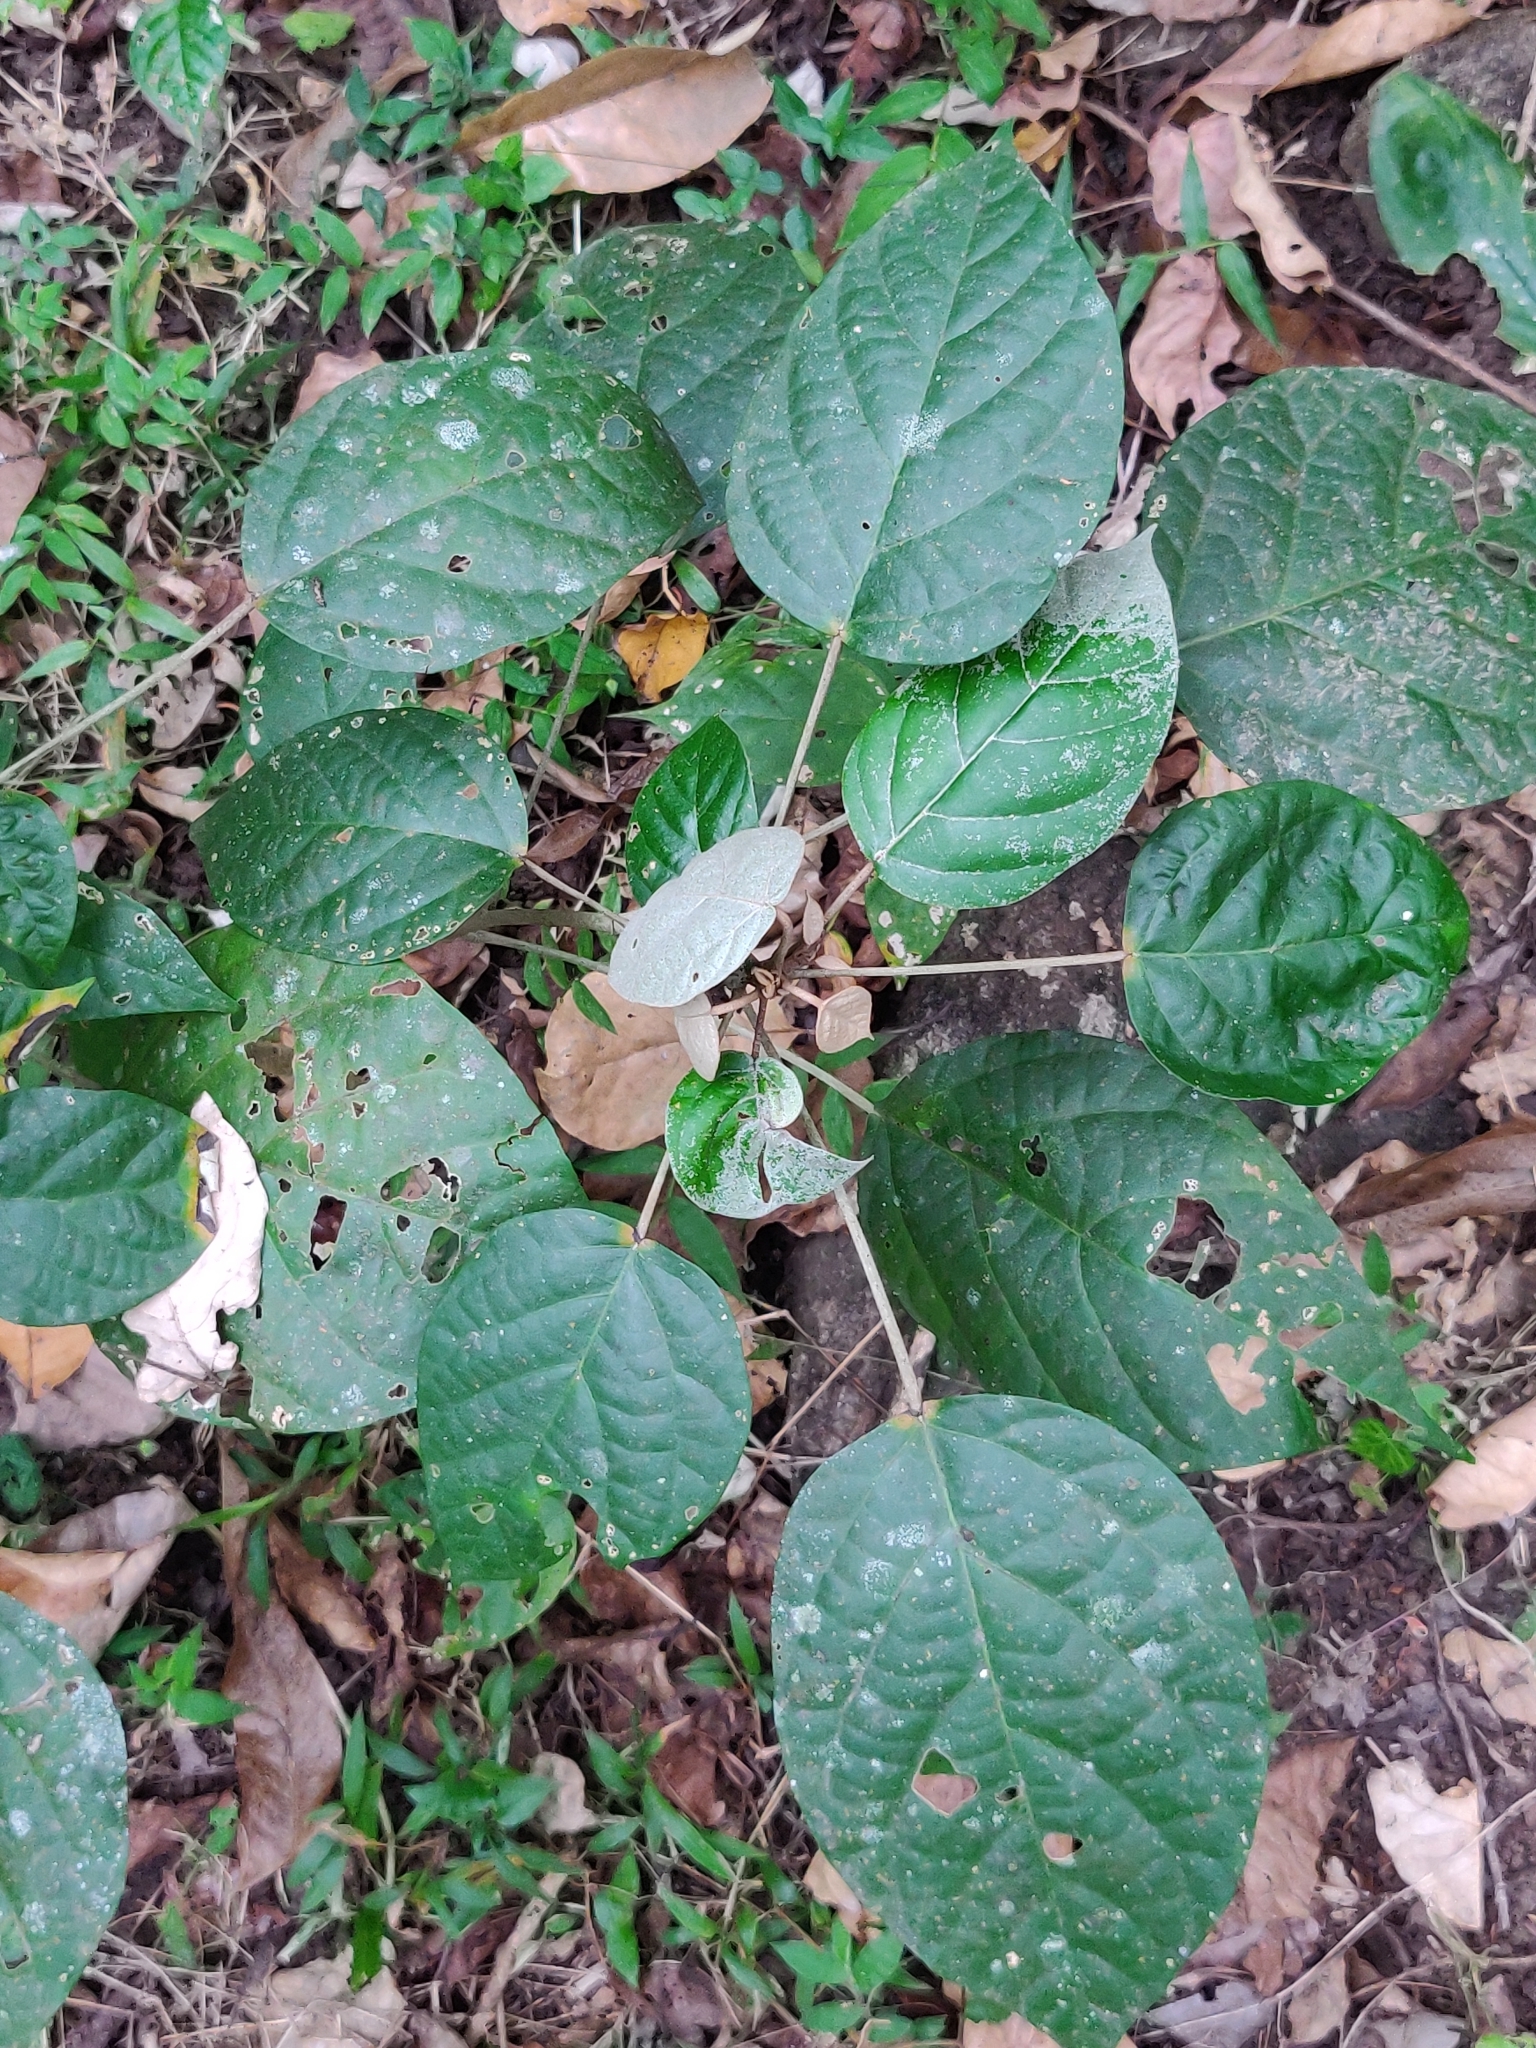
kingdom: Plantae
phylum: Tracheophyta
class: Magnoliopsida
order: Malpighiales
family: Euphorbiaceae
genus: Croton
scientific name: Croton malabaricus
